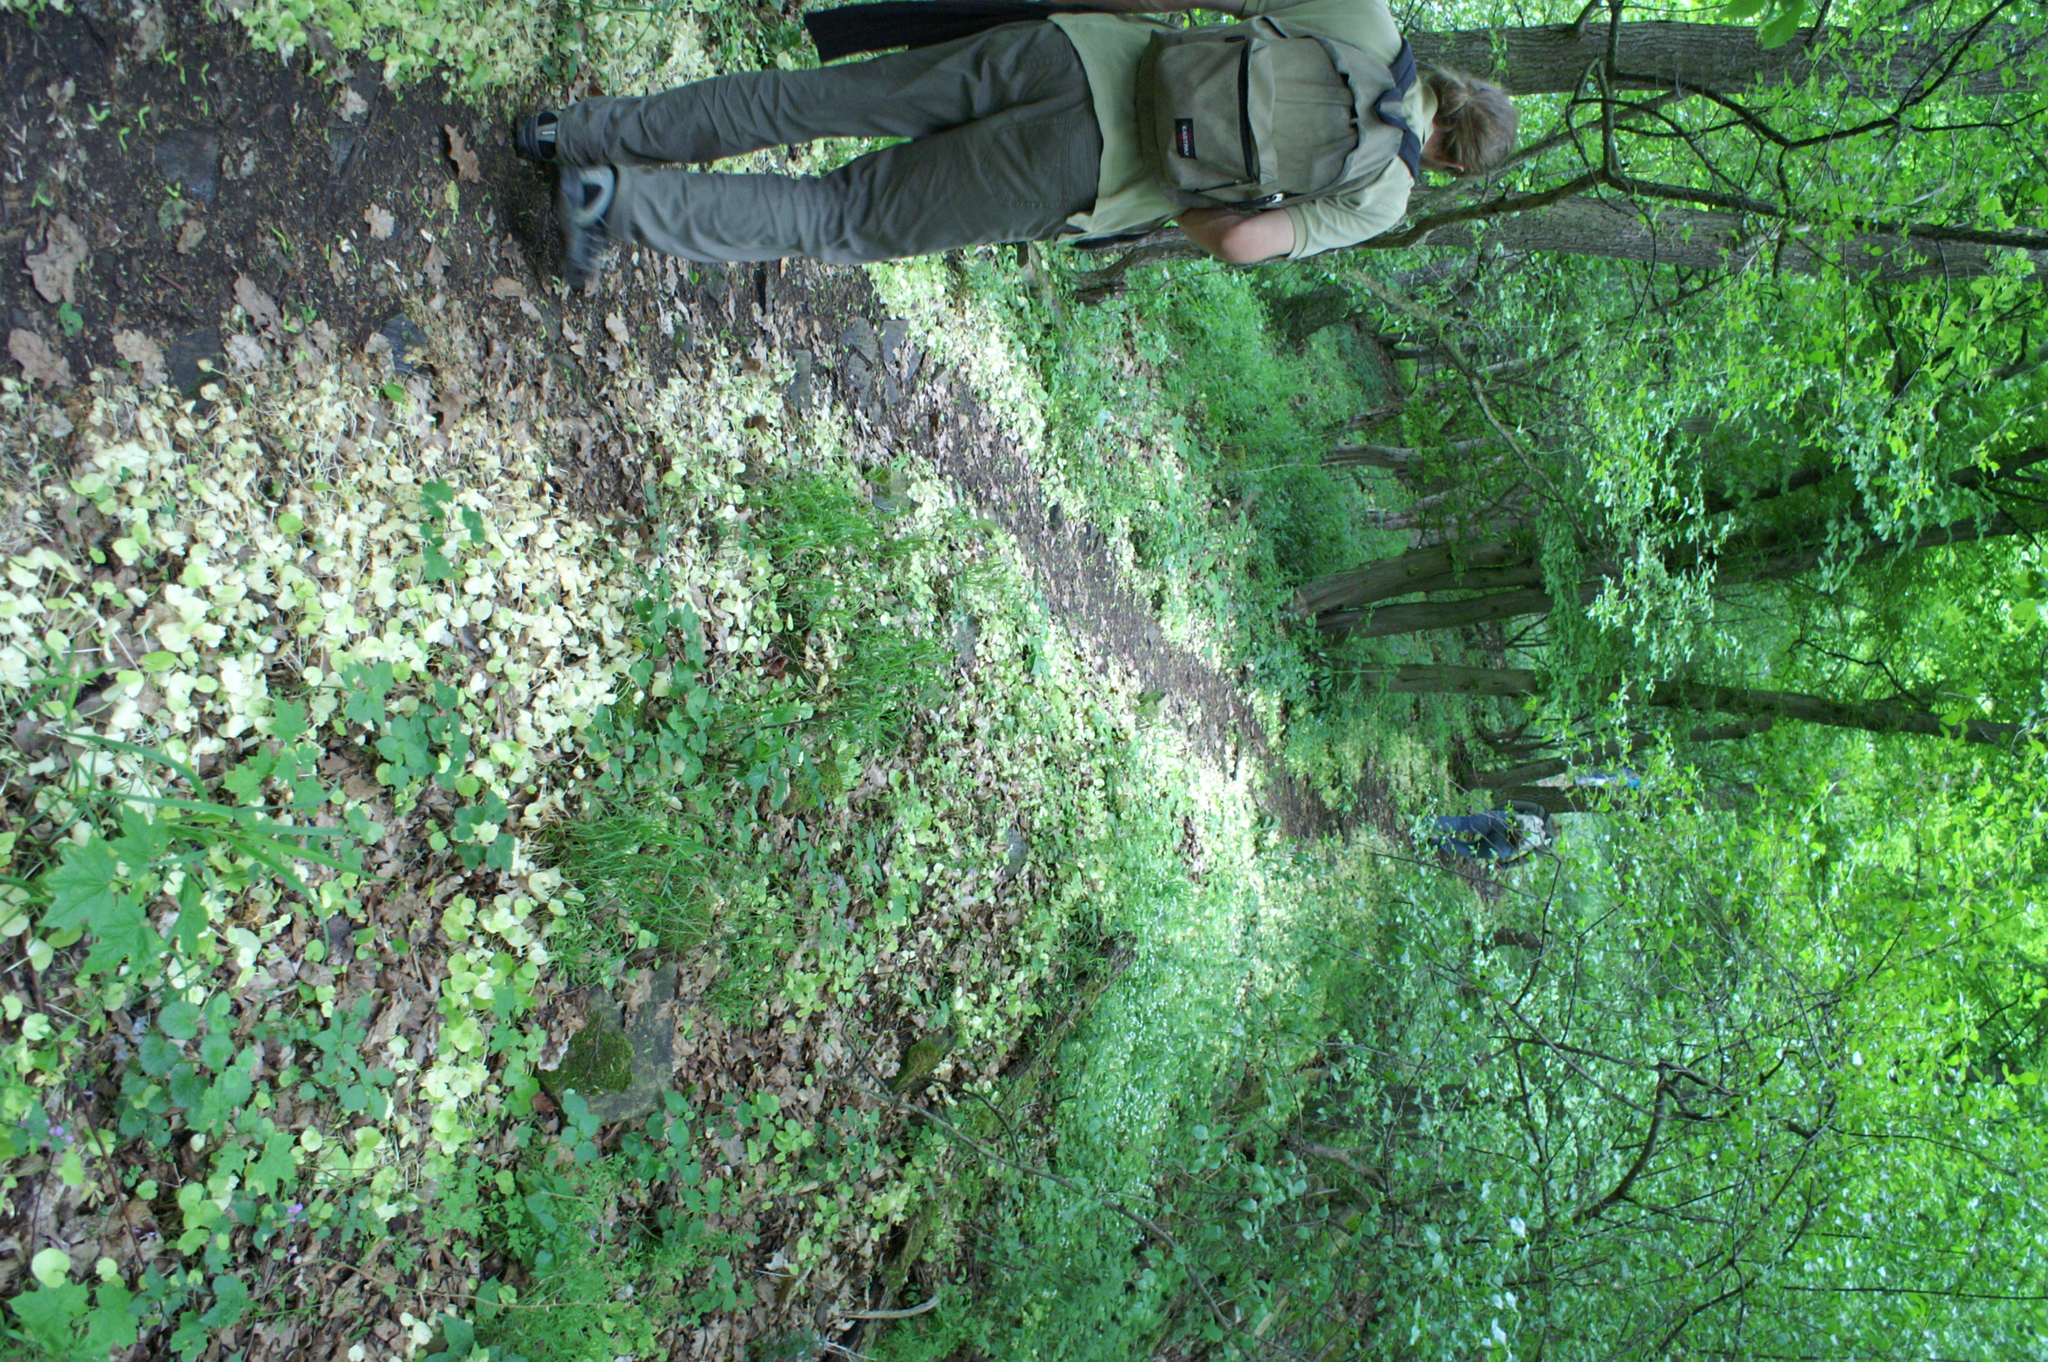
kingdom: Plantae
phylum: Tracheophyta
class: Magnoliopsida
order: Ranunculales
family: Ranunculaceae
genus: Ficaria
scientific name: Ficaria verna
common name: Lesser celandine
